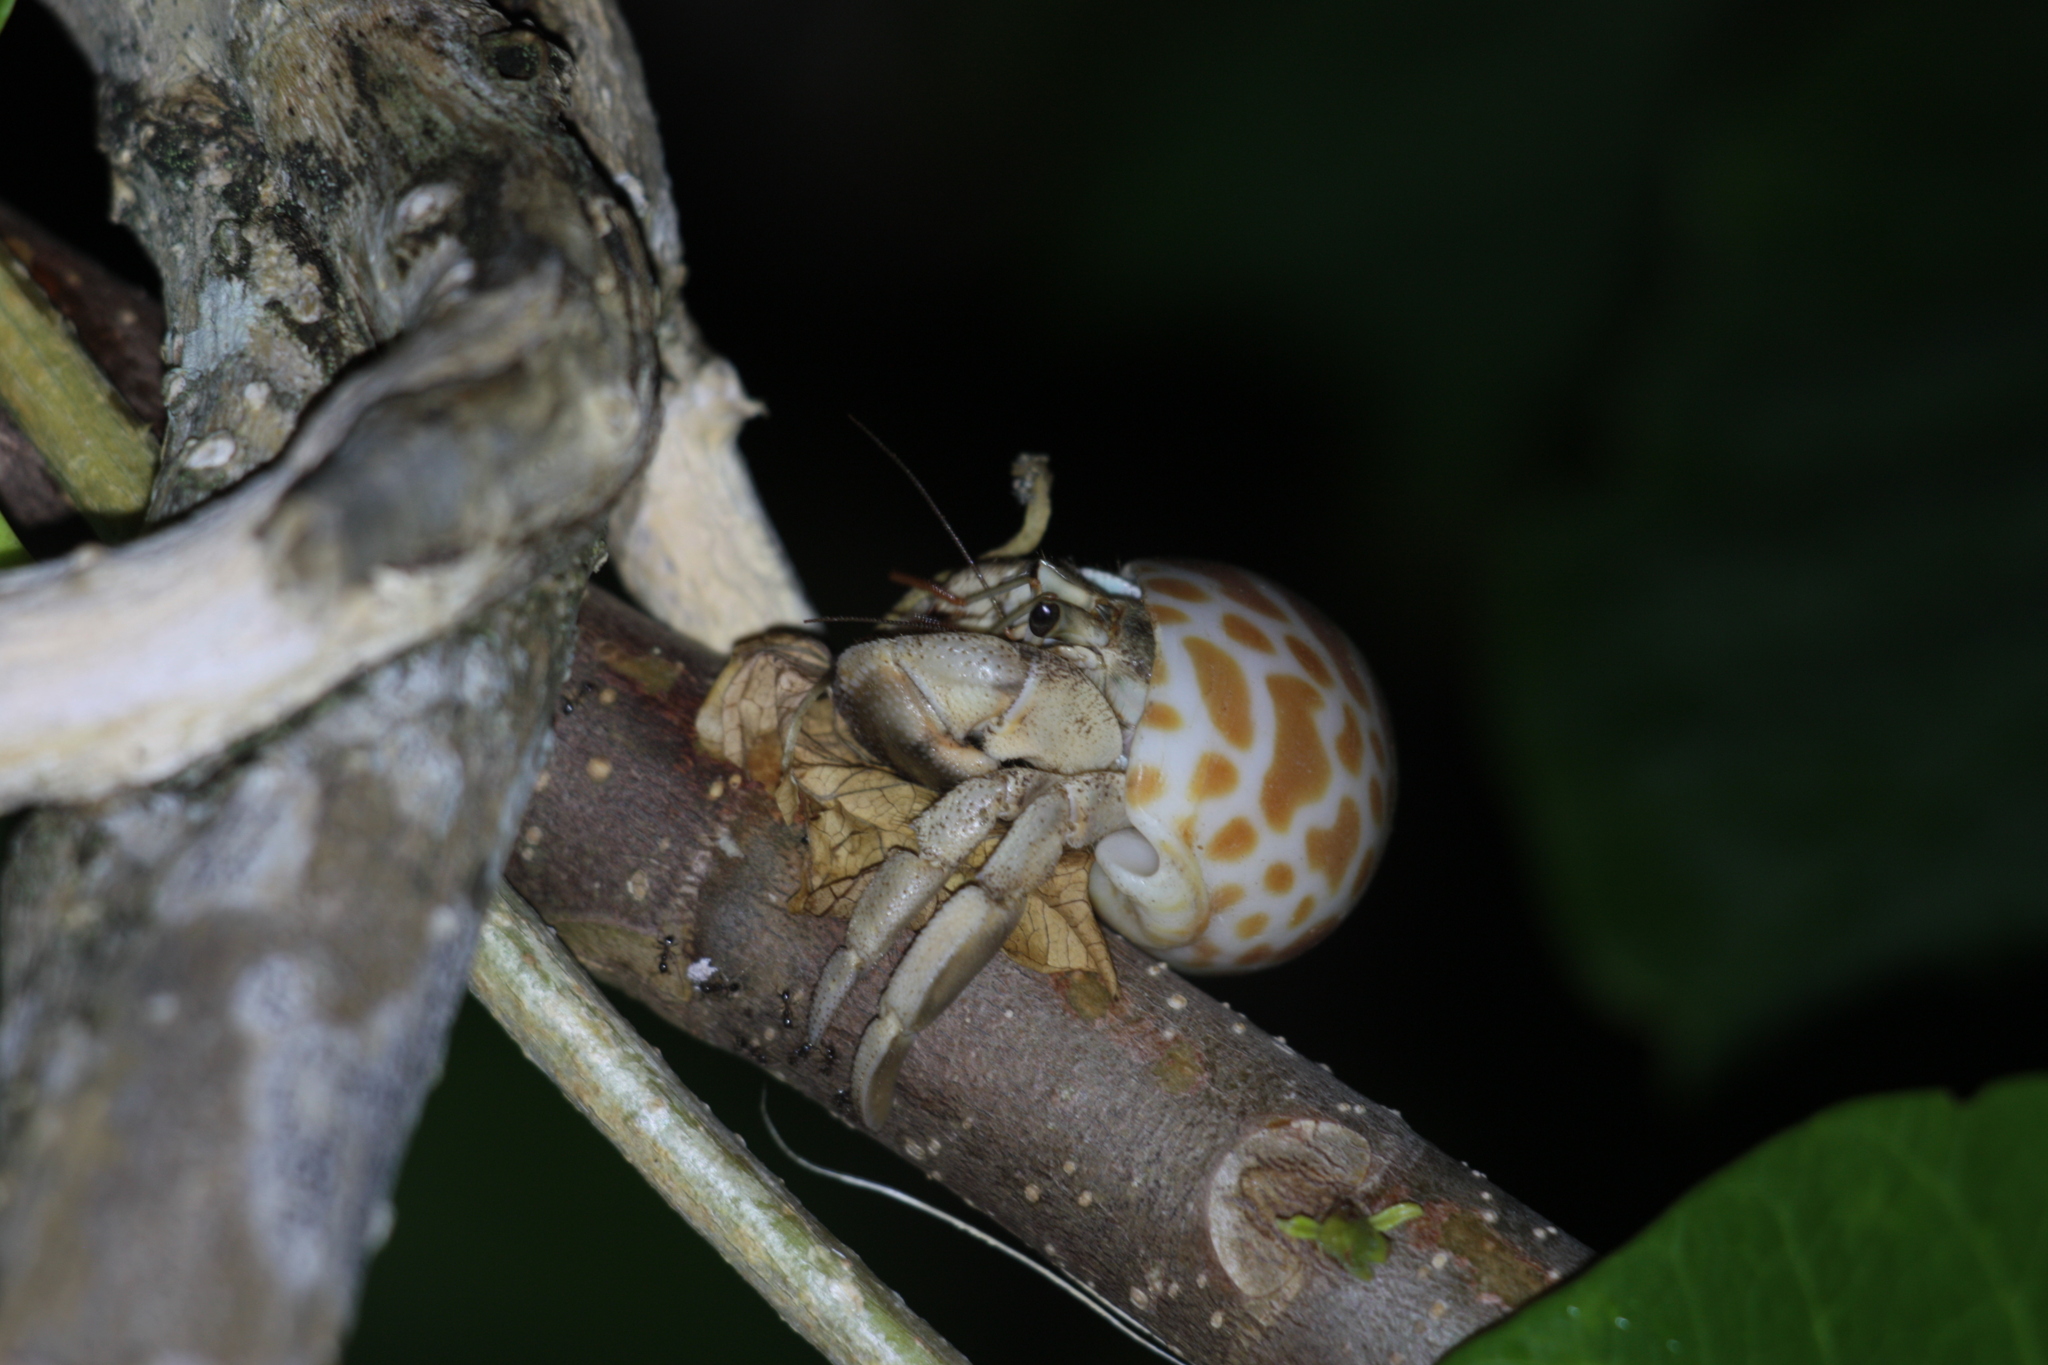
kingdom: Animalia
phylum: Arthropoda
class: Malacostraca
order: Decapoda
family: Coenobitidae
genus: Coenobita
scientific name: Coenobita rugosus
